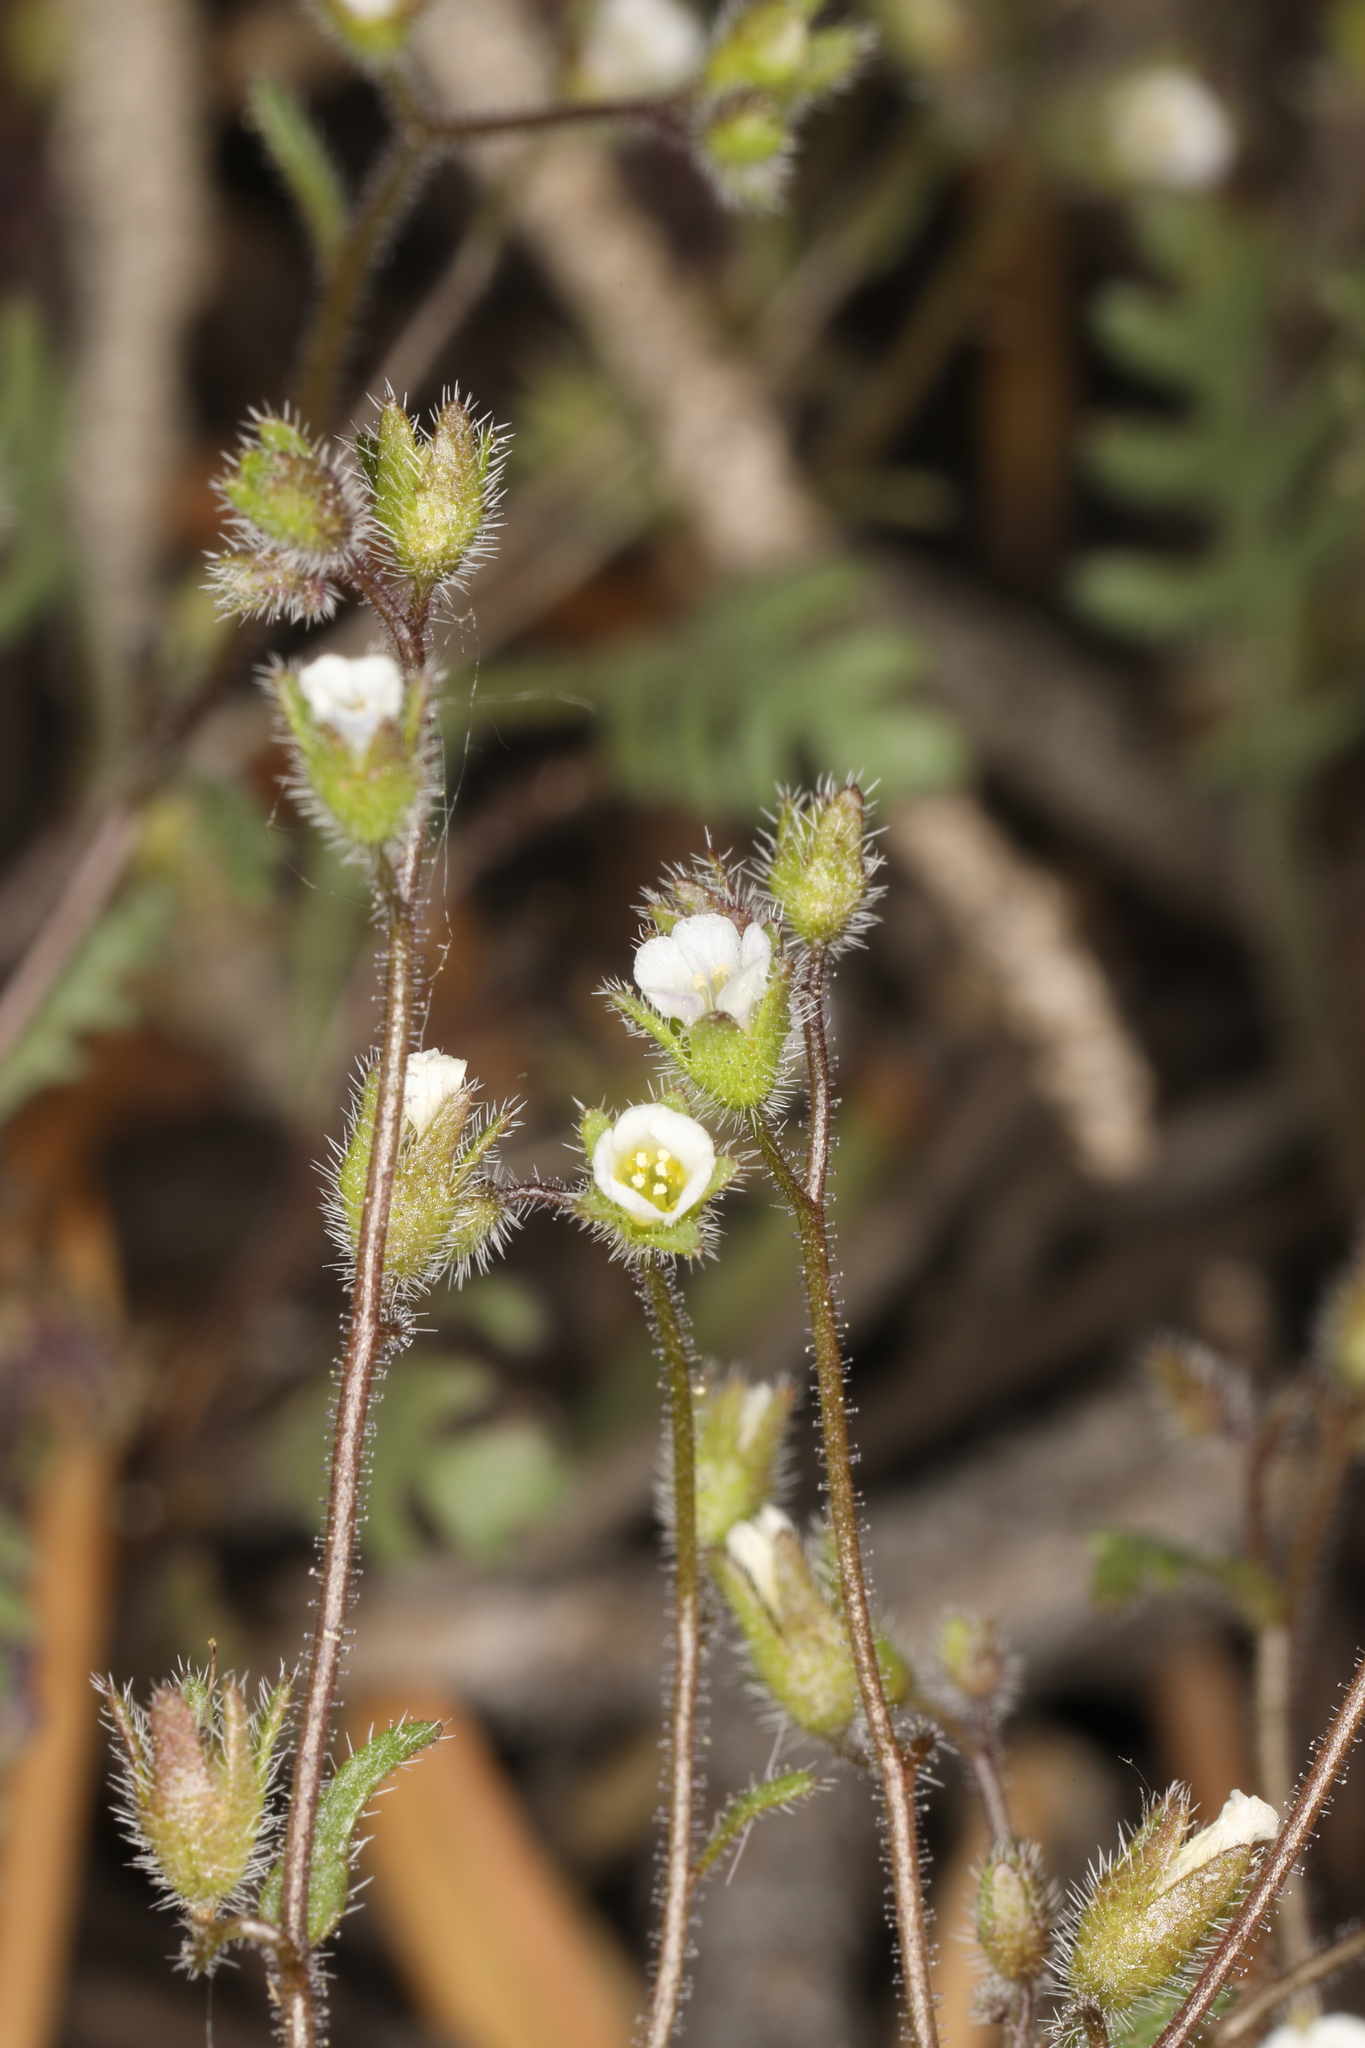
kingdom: Plantae
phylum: Tracheophyta
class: Magnoliopsida
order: Boraginales
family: Hydrophyllaceae
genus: Eucrypta
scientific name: Eucrypta micrantha
